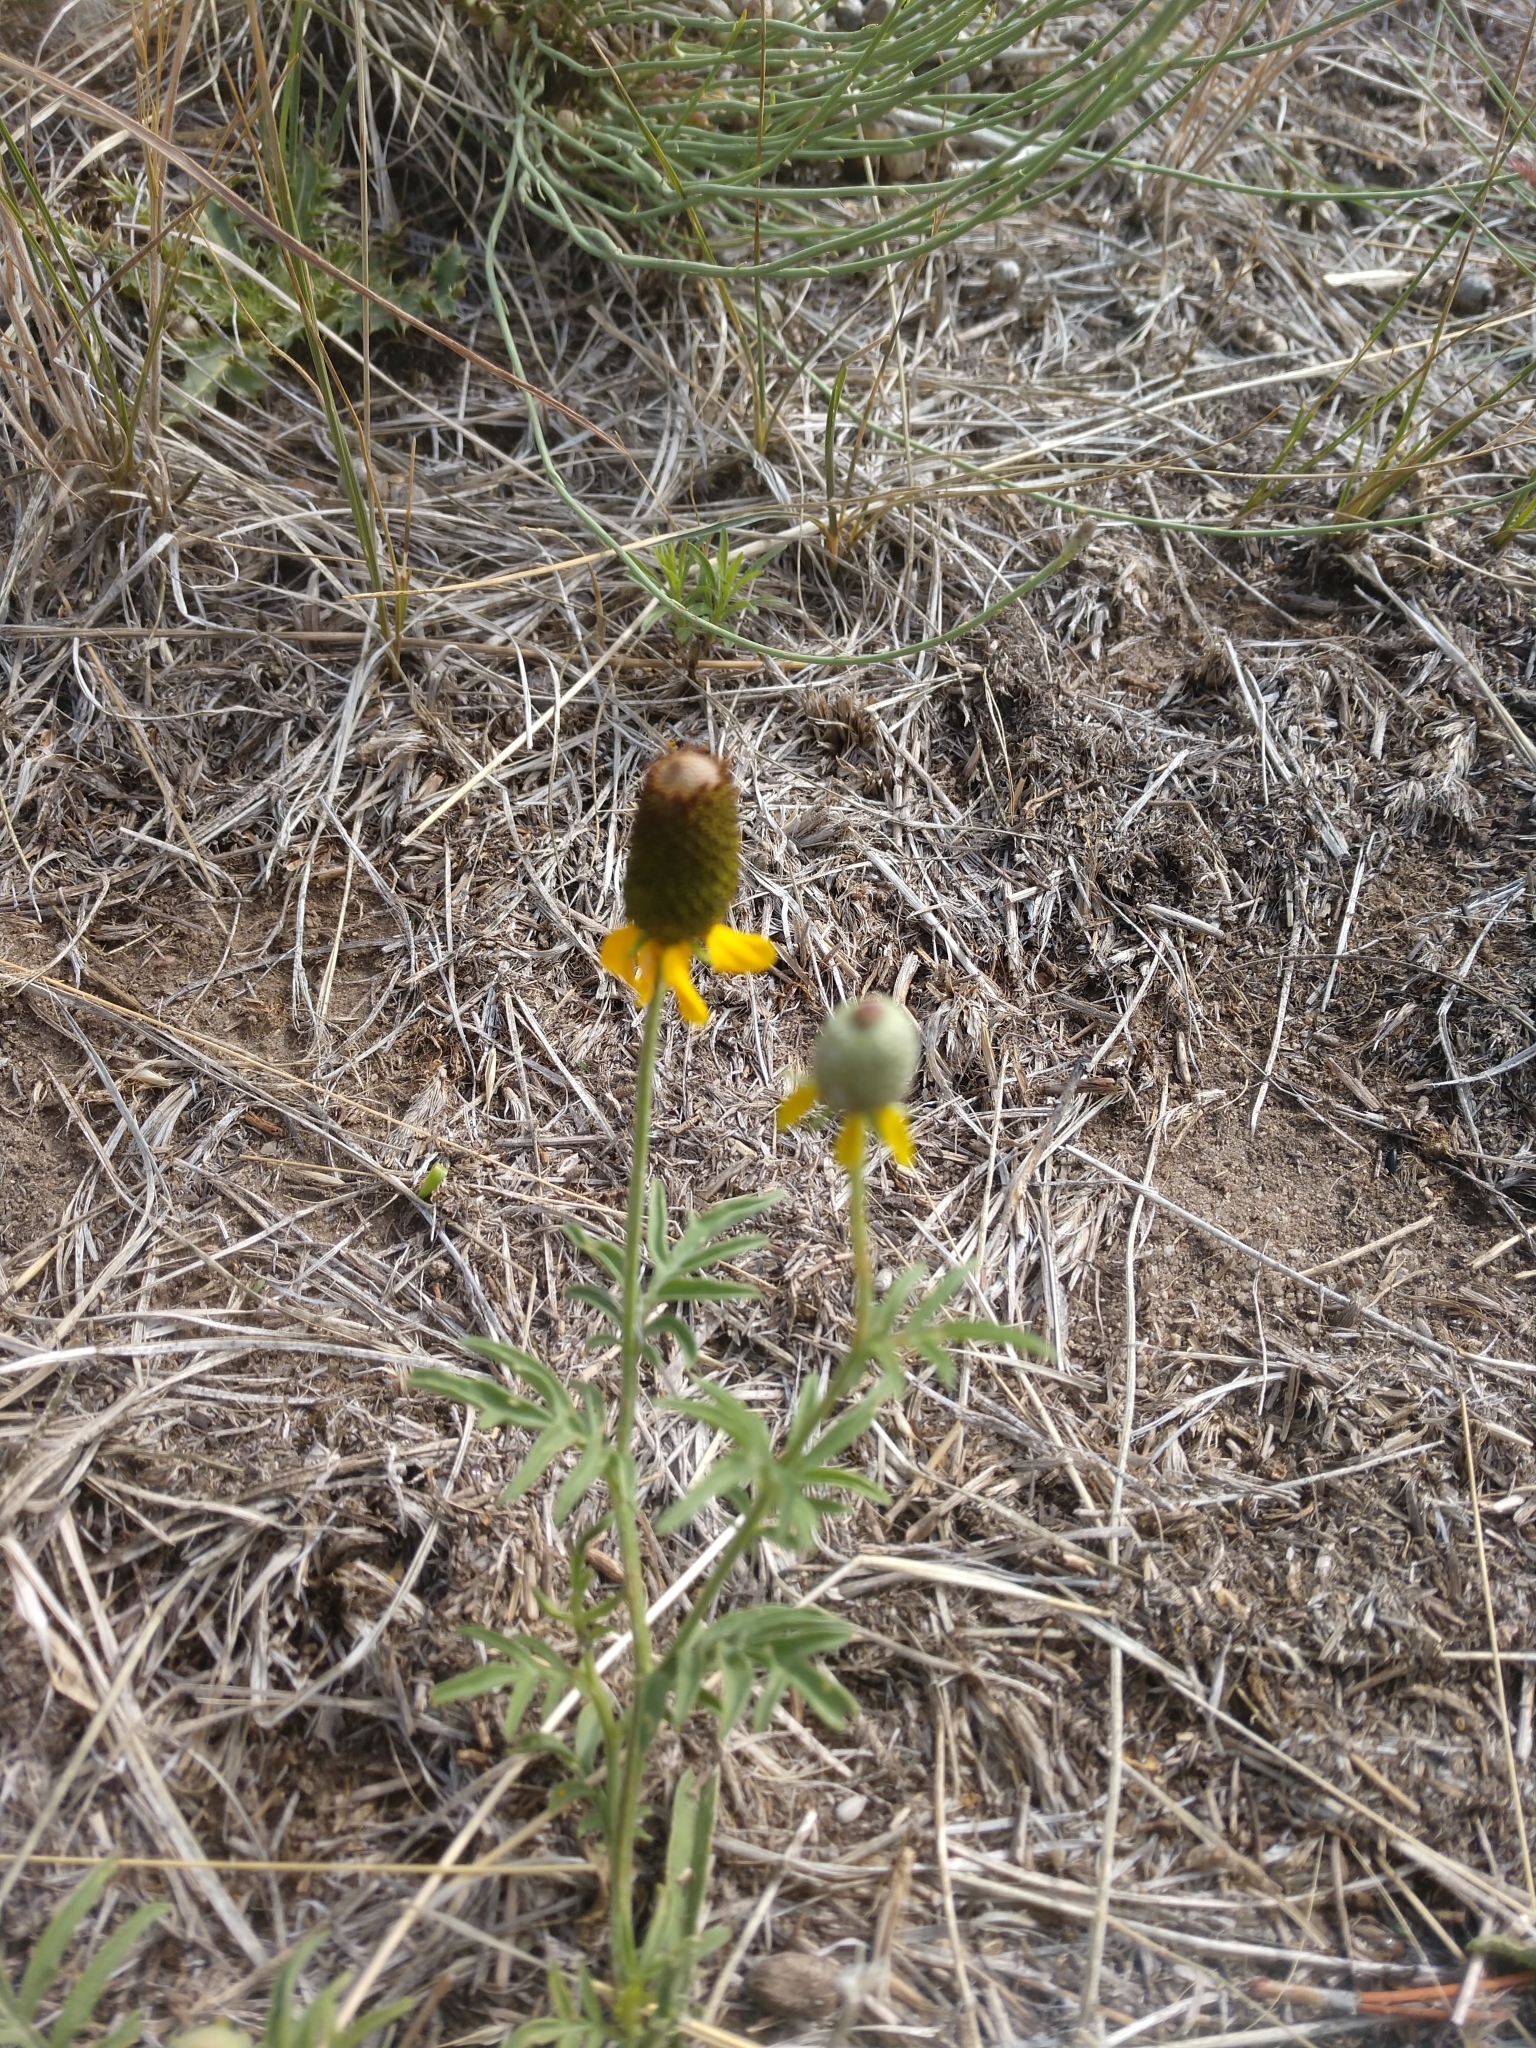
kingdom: Plantae
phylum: Tracheophyta
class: Magnoliopsida
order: Asterales
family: Asteraceae
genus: Ratibida
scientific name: Ratibida columnifera
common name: Prairie coneflower
